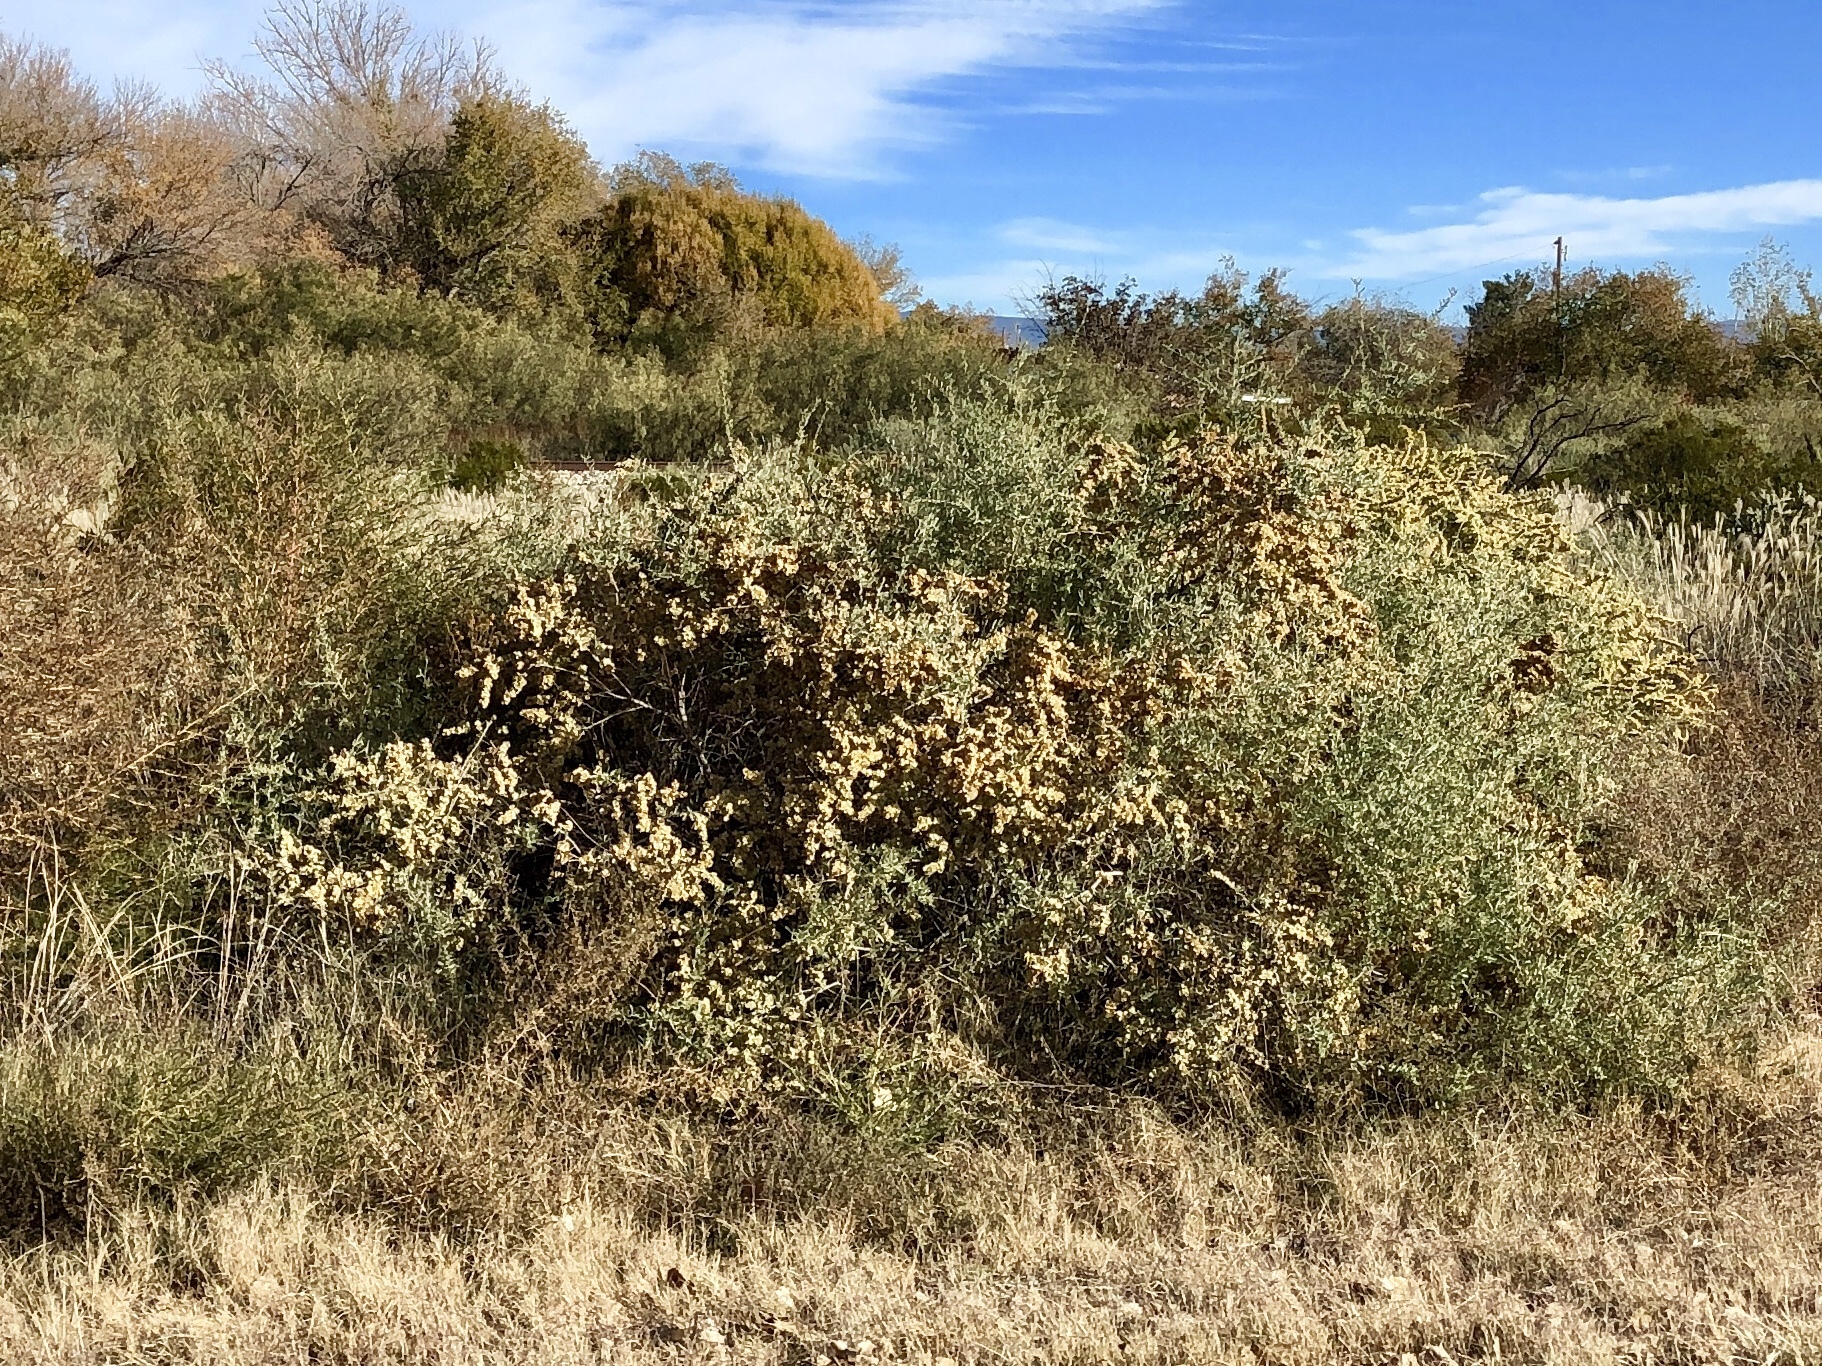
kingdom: Plantae
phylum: Tracheophyta
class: Magnoliopsida
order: Caryophyllales
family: Amaranthaceae
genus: Atriplex
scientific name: Atriplex canescens
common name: Four-wing saltbush
